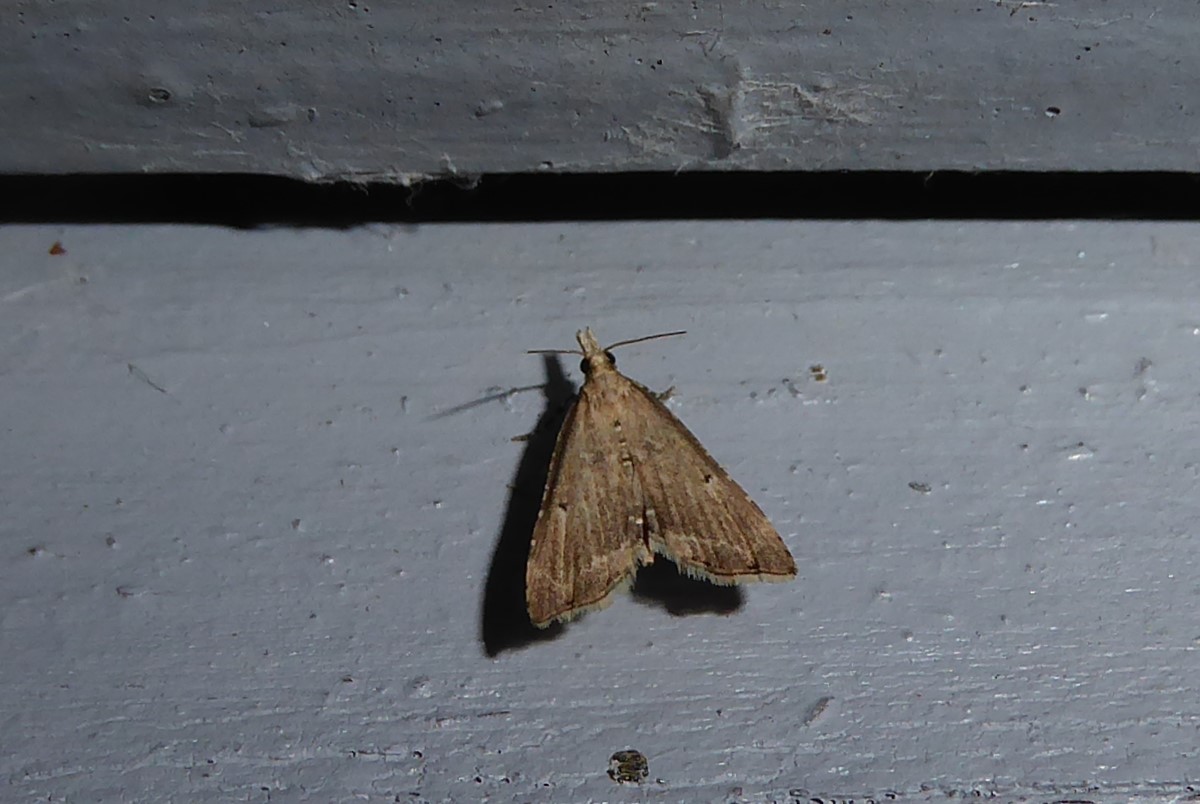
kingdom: Animalia
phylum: Arthropoda
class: Insecta
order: Lepidoptera
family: Crambidae
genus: Diplopseustis
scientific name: Diplopseustis perieresalis
